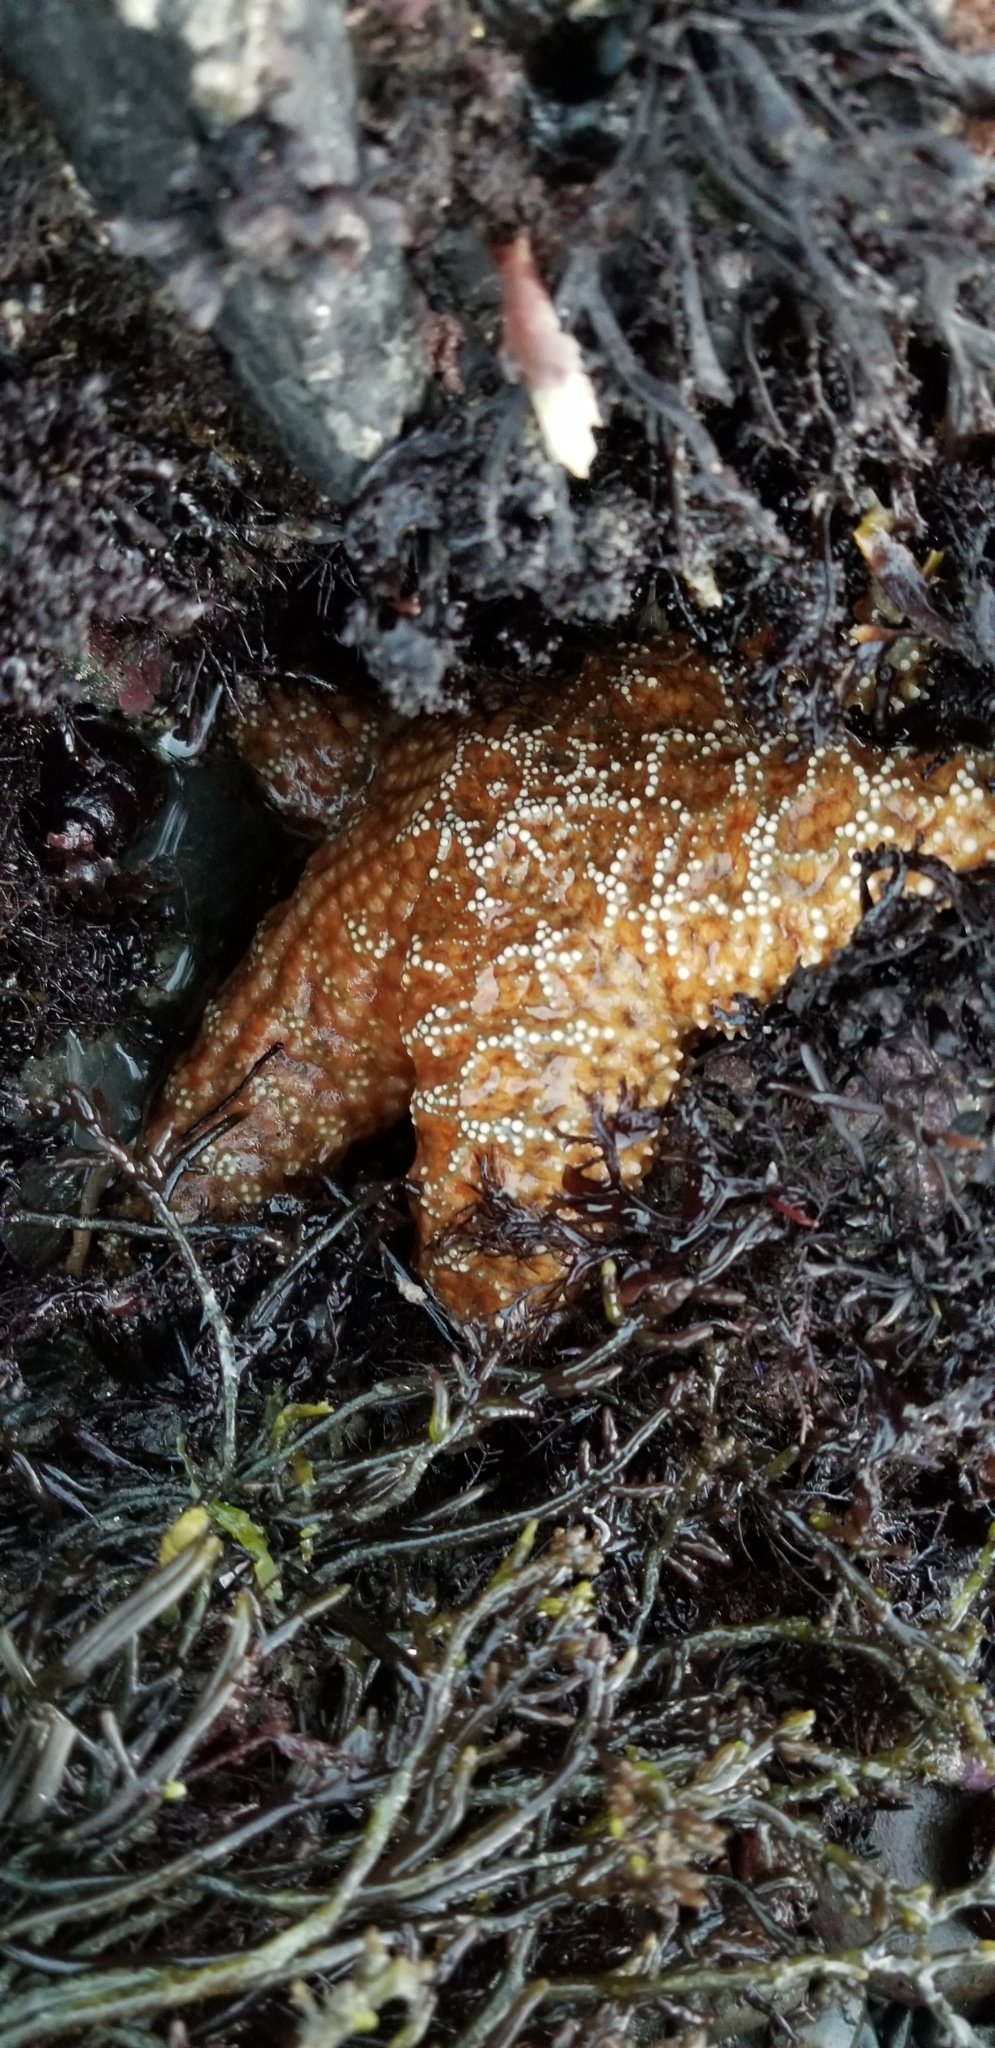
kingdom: Animalia
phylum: Echinodermata
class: Asteroidea
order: Forcipulatida
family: Asteriidae
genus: Pisaster
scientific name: Pisaster ochraceus
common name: Ochre stars
